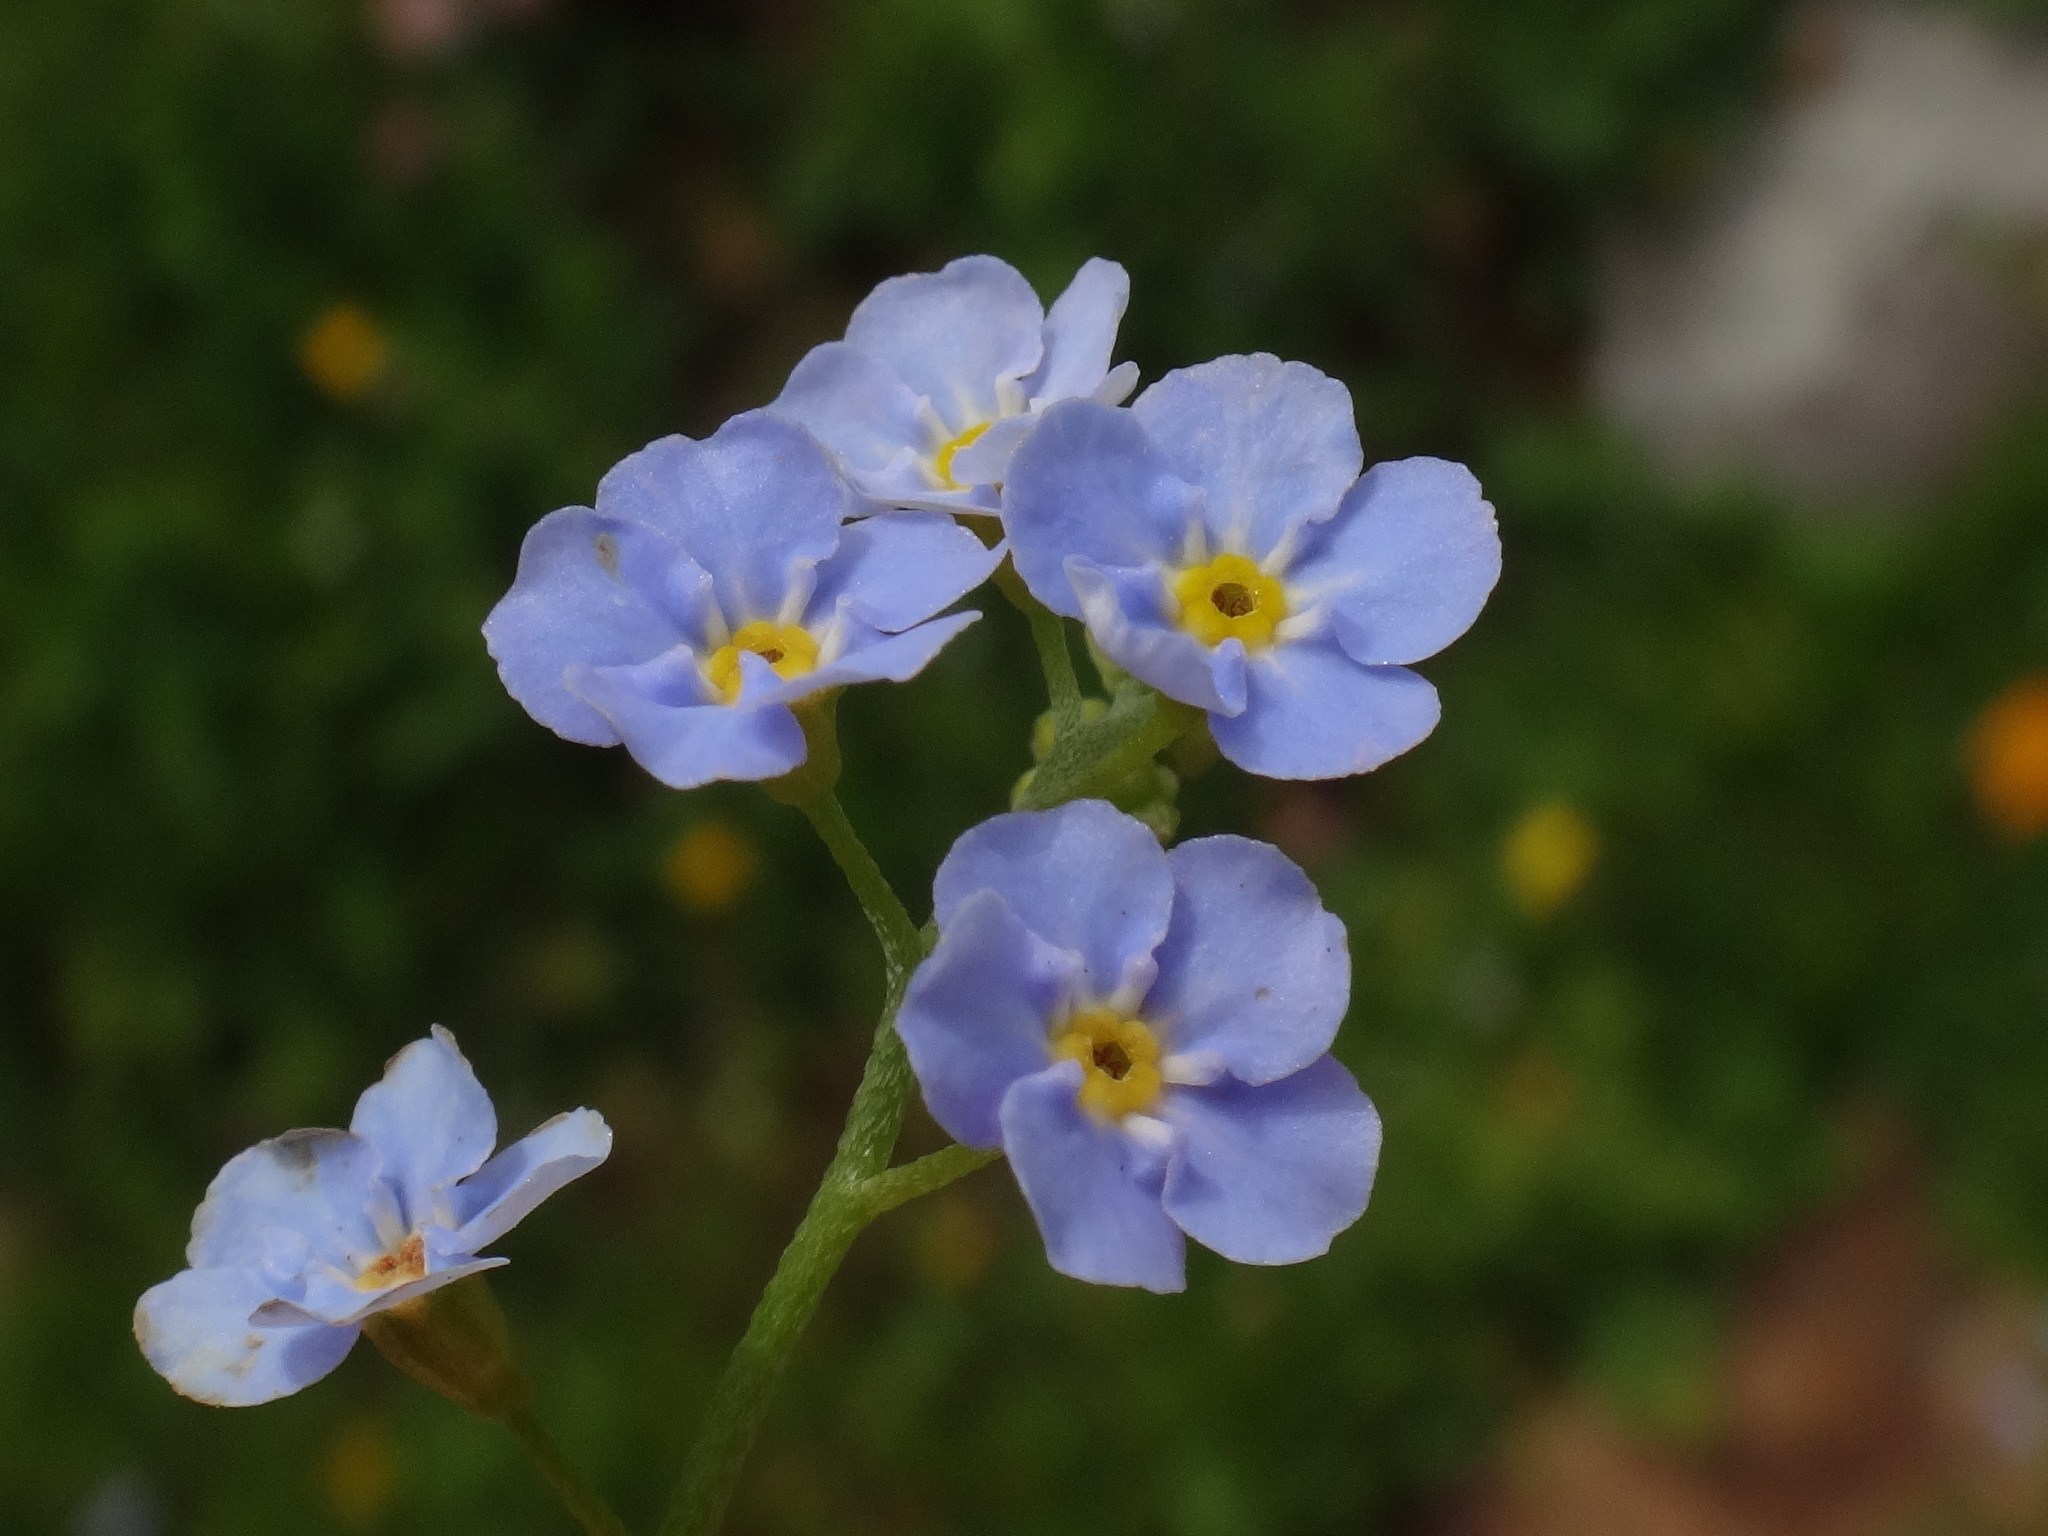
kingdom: Plantae
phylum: Tracheophyta
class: Magnoliopsida
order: Boraginales
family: Boraginaceae
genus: Myosotis
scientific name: Myosotis scorpioides
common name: Water forget-me-not
